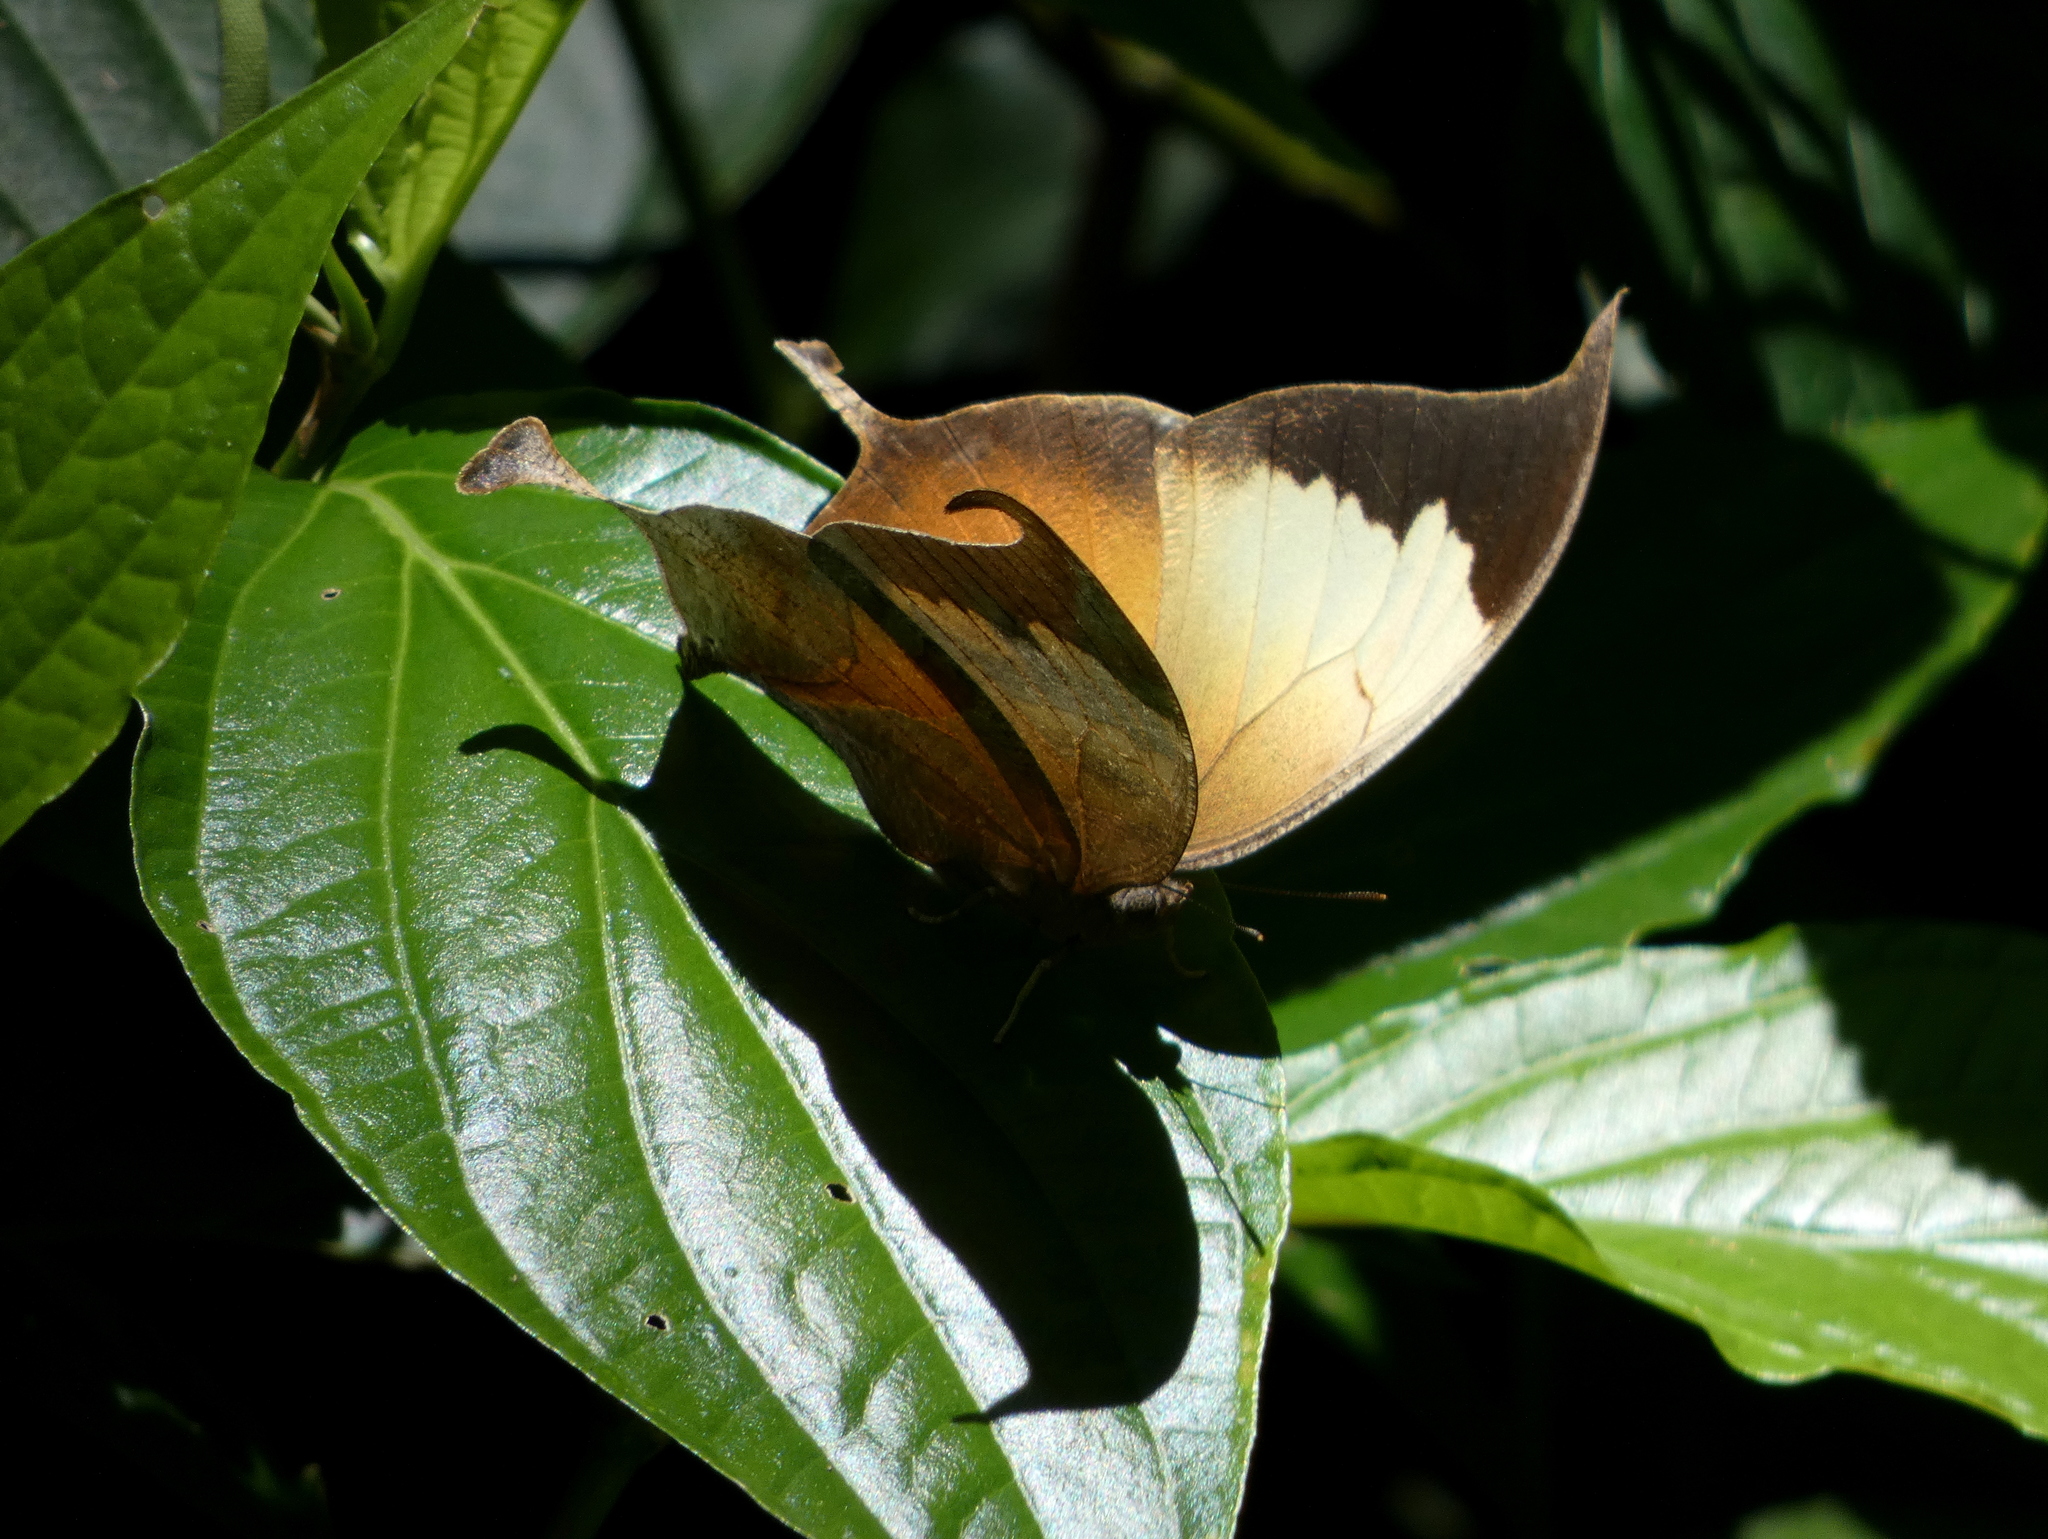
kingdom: Animalia
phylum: Arthropoda
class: Insecta
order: Lepidoptera
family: Nymphalidae
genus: Consul
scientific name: Consul electra
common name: Pearly leafwing
